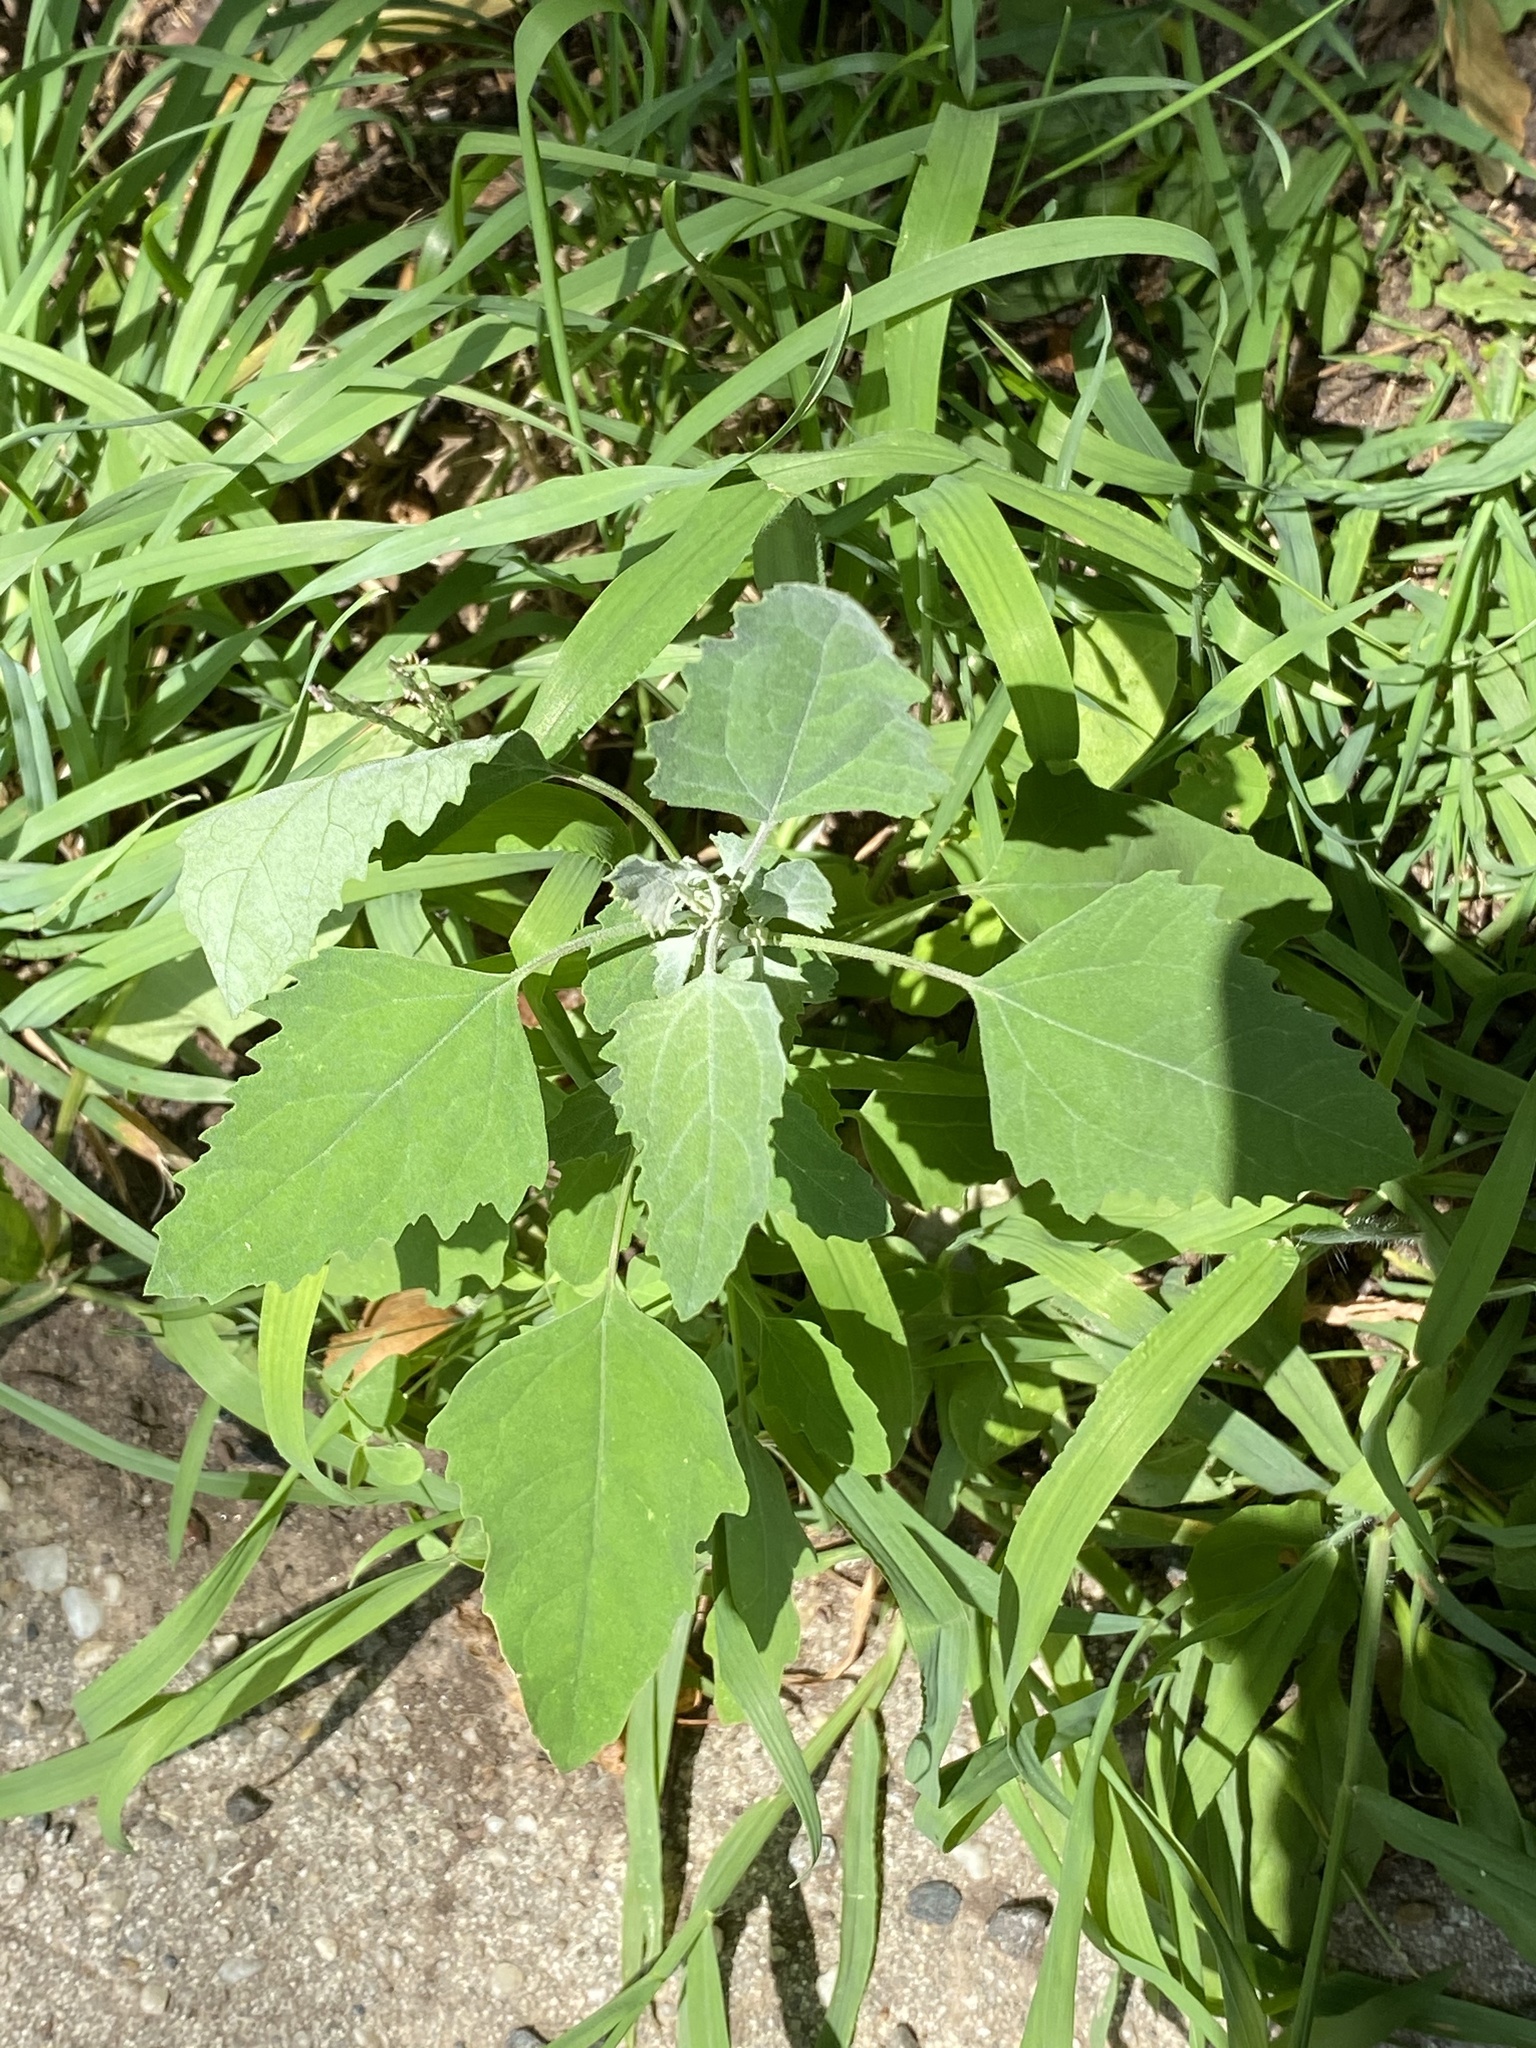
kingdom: Plantae
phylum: Tracheophyta
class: Magnoliopsida
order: Caryophyllales
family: Amaranthaceae
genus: Chenopodium
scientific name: Chenopodium album
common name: Fat-hen
